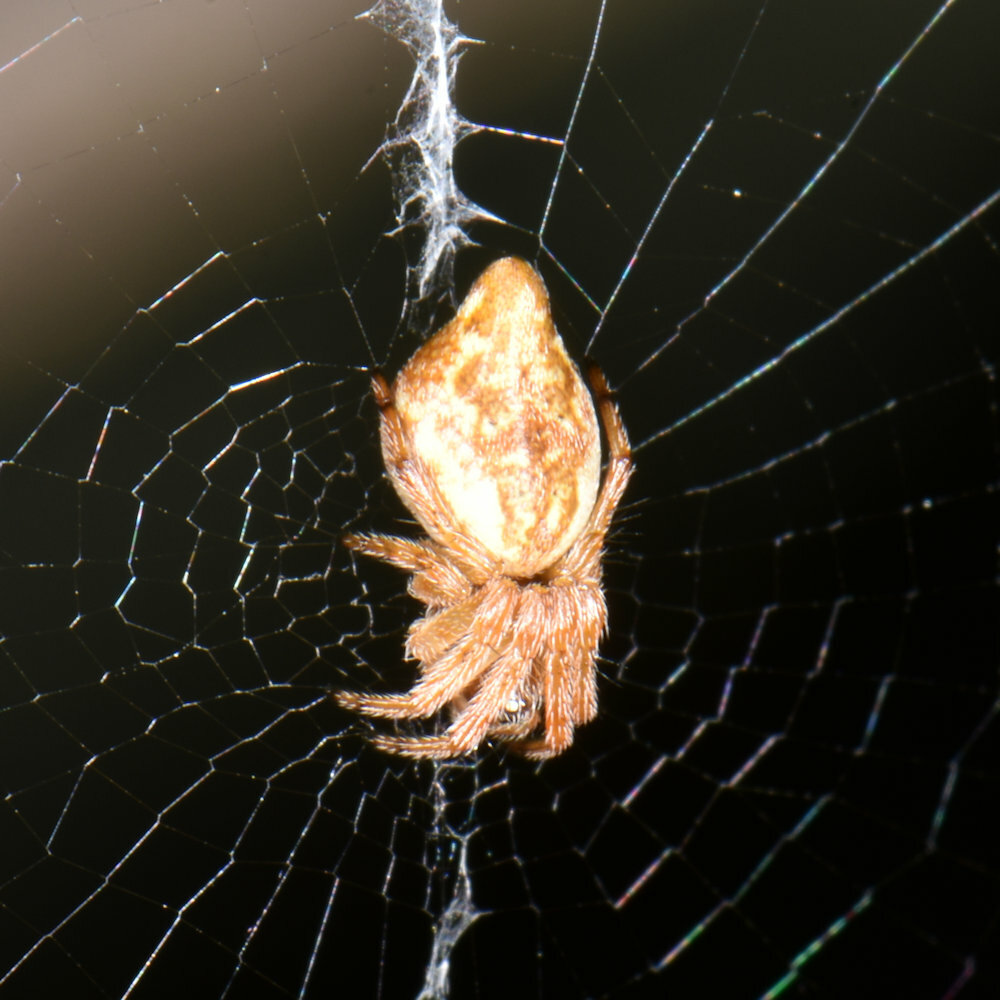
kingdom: Animalia
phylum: Arthropoda
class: Arachnida
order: Araneae
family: Araneidae
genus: Cyclosa
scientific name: Cyclosa conica
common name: Conical trashline orbweaver
